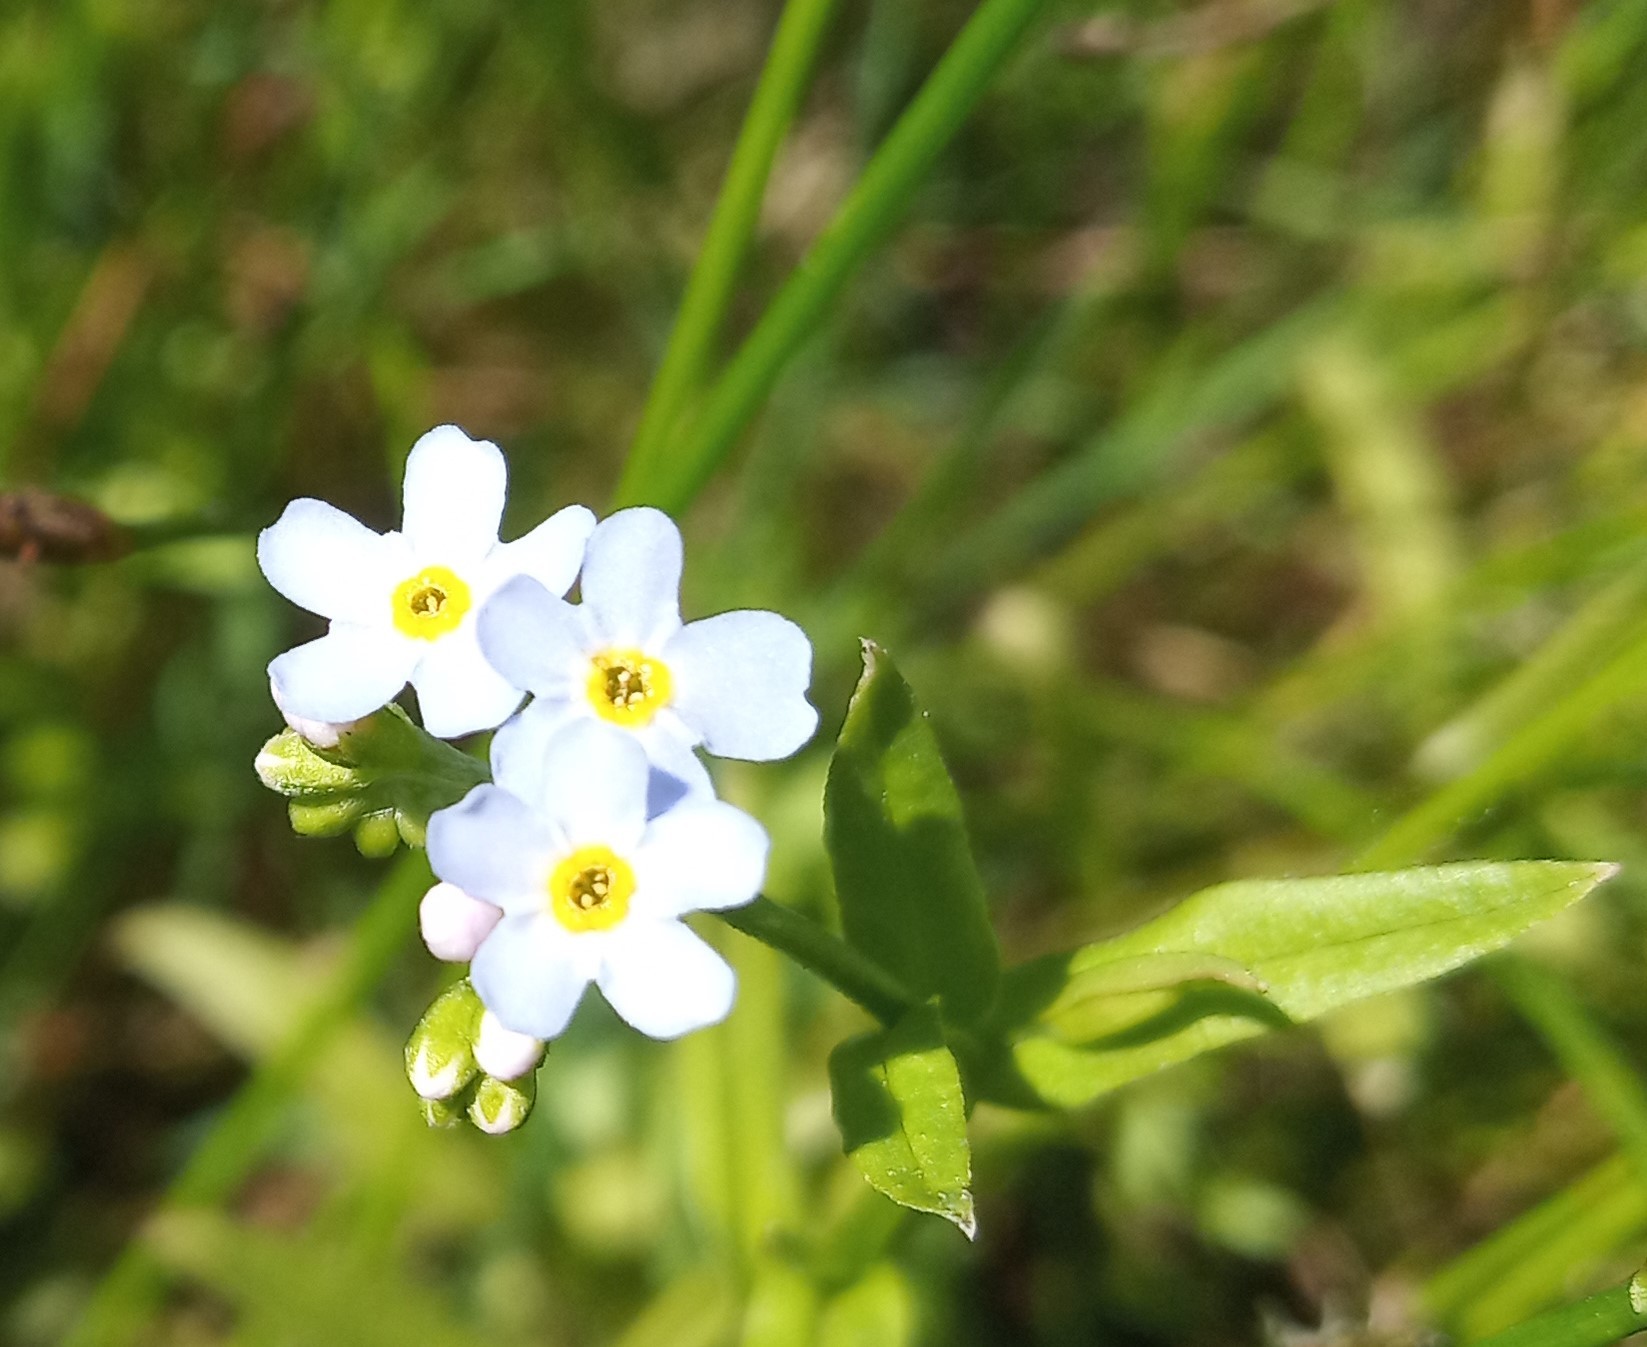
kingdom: Plantae
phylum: Tracheophyta
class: Magnoliopsida
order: Boraginales
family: Boraginaceae
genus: Myosotis
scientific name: Myosotis scorpioides
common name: Water forget-me-not
